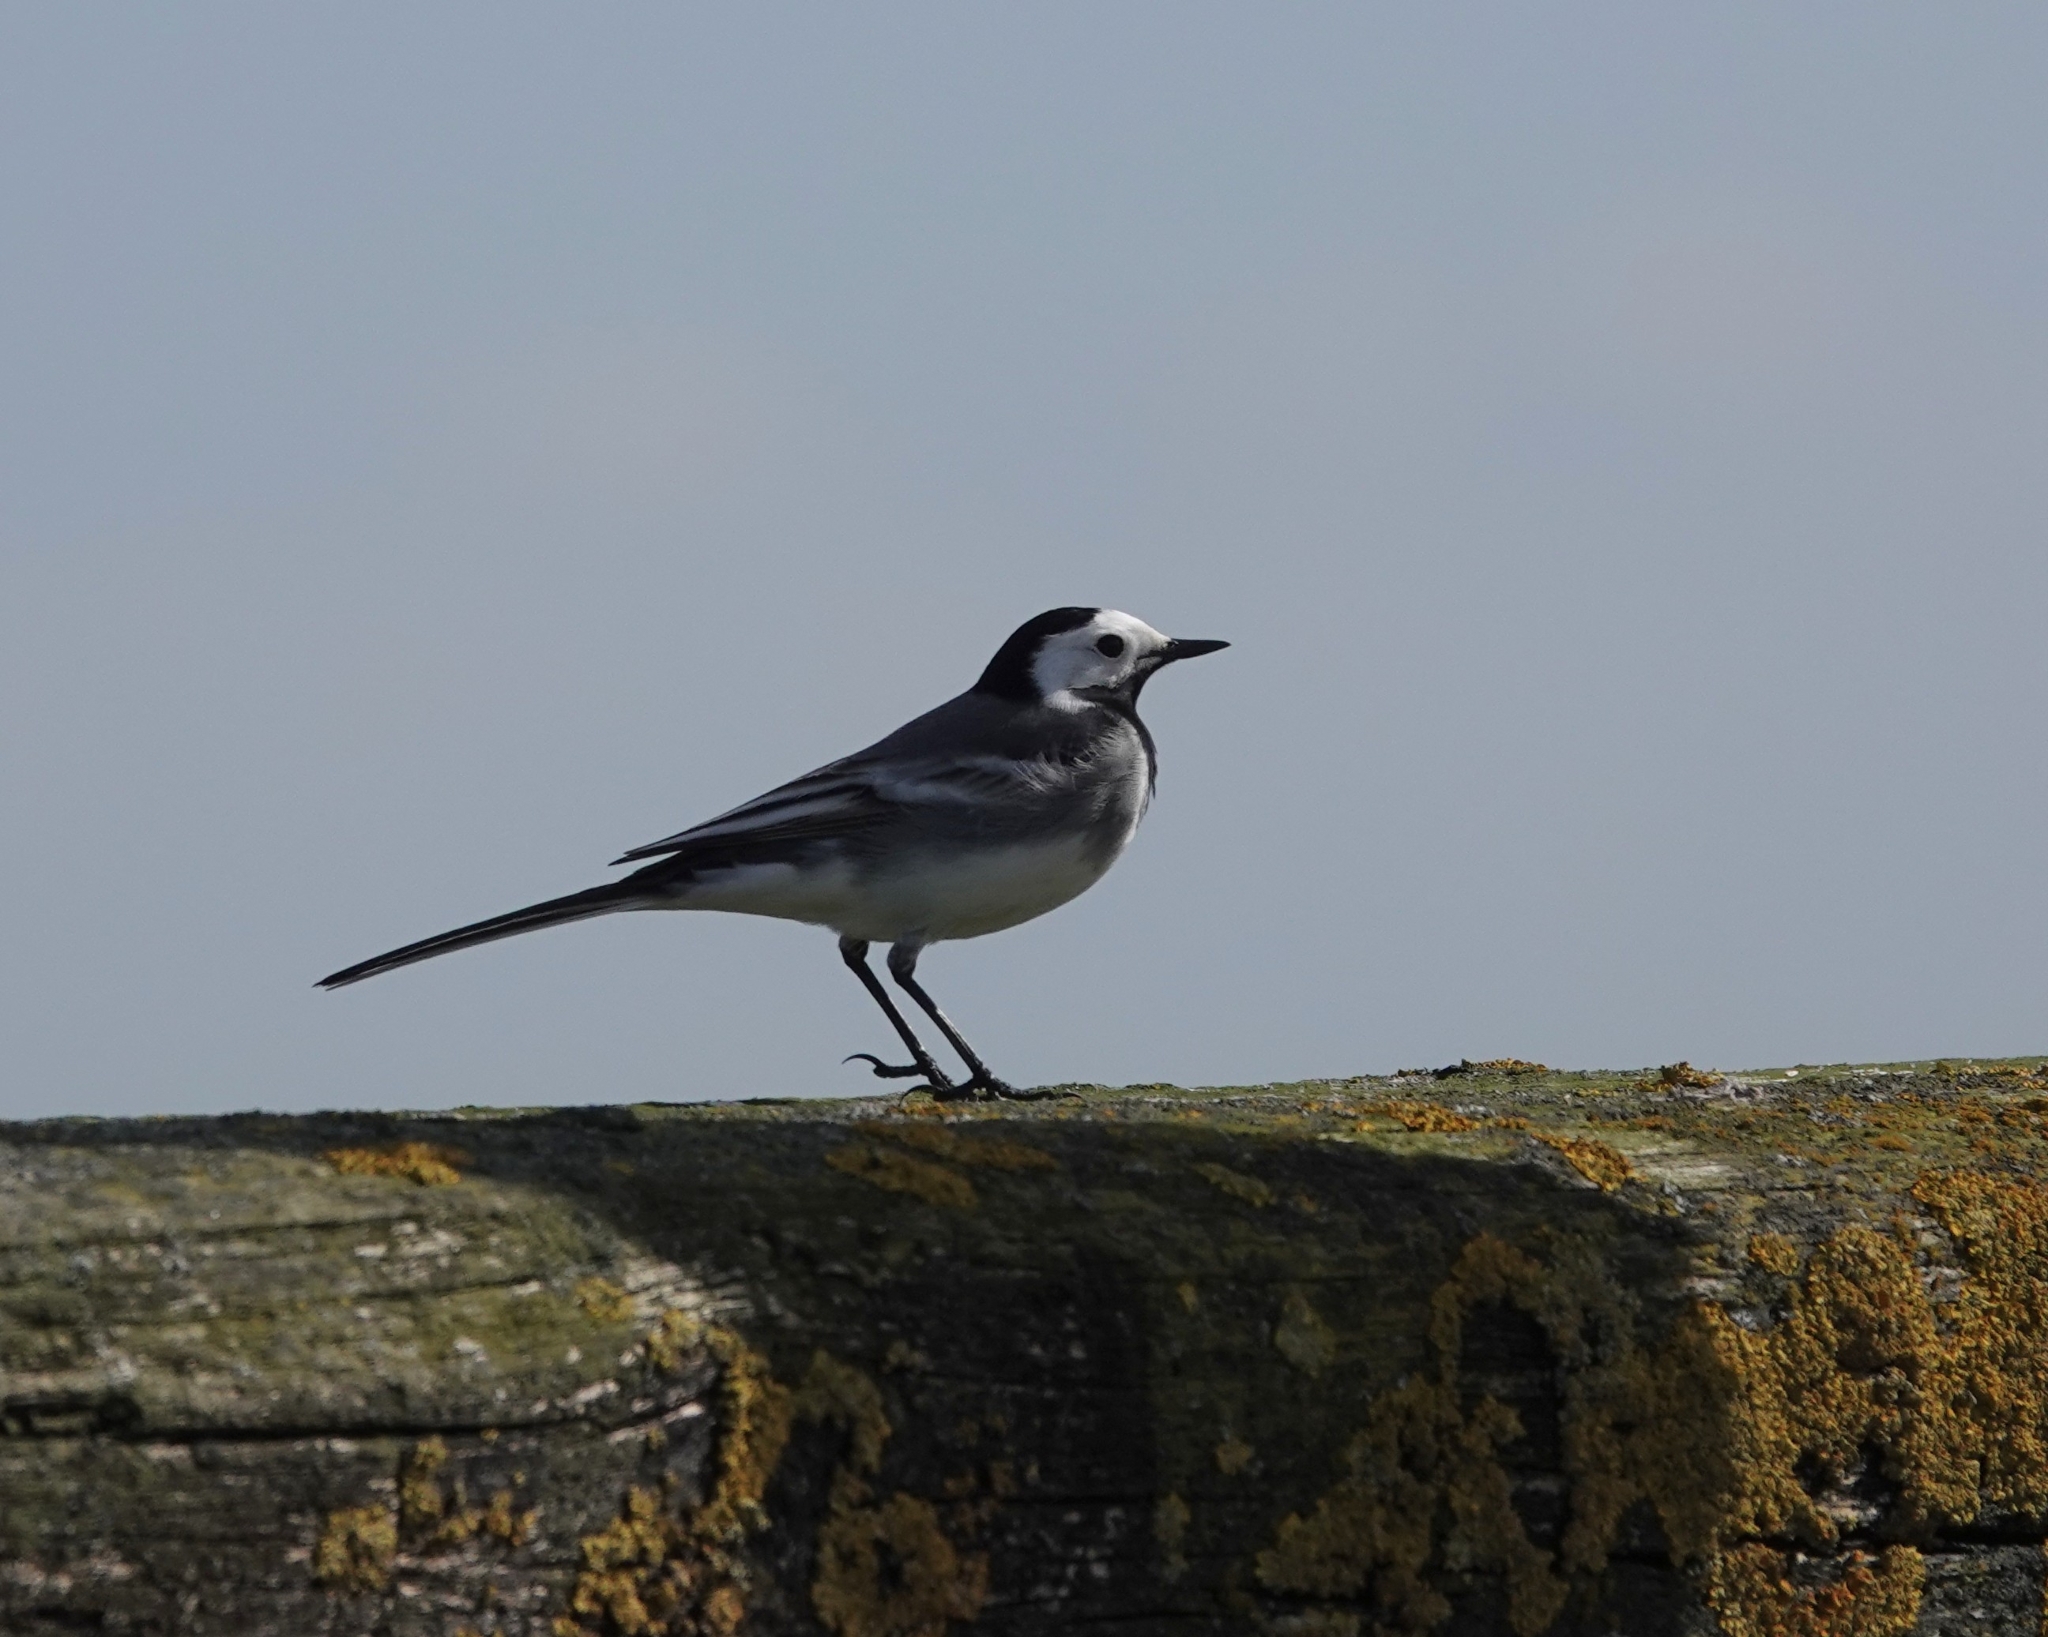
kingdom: Animalia
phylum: Chordata
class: Aves
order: Passeriformes
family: Motacillidae
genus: Motacilla
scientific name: Motacilla alba
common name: White wagtail
